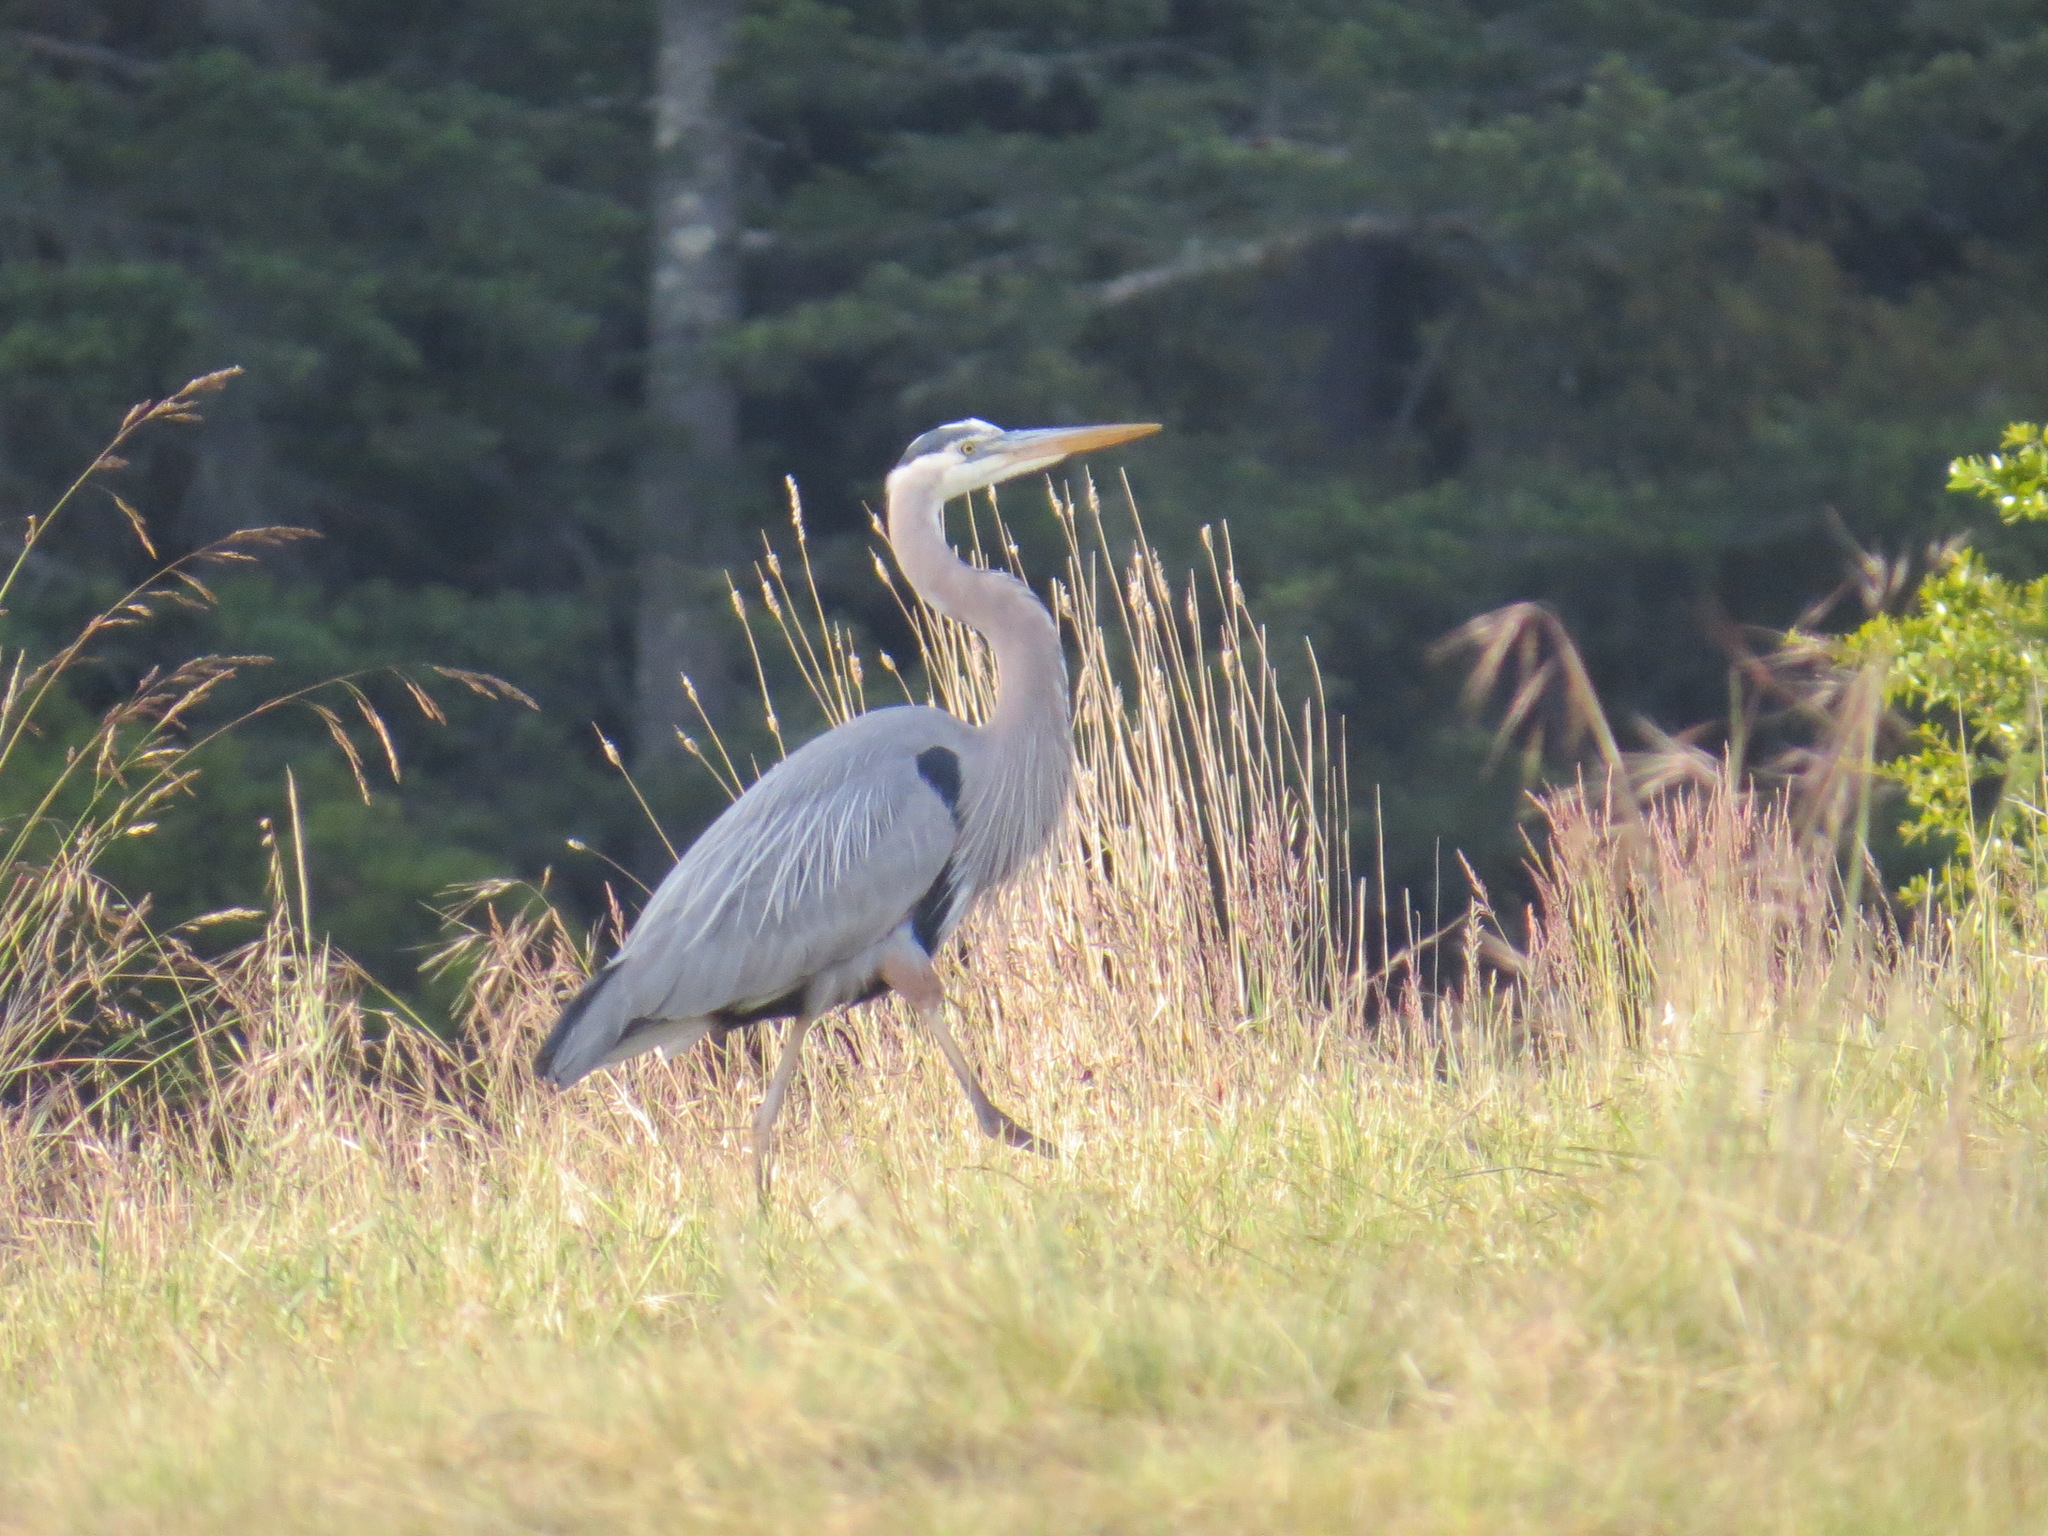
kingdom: Animalia
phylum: Chordata
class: Aves
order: Pelecaniformes
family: Ardeidae
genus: Ardea
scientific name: Ardea herodias
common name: Great blue heron
